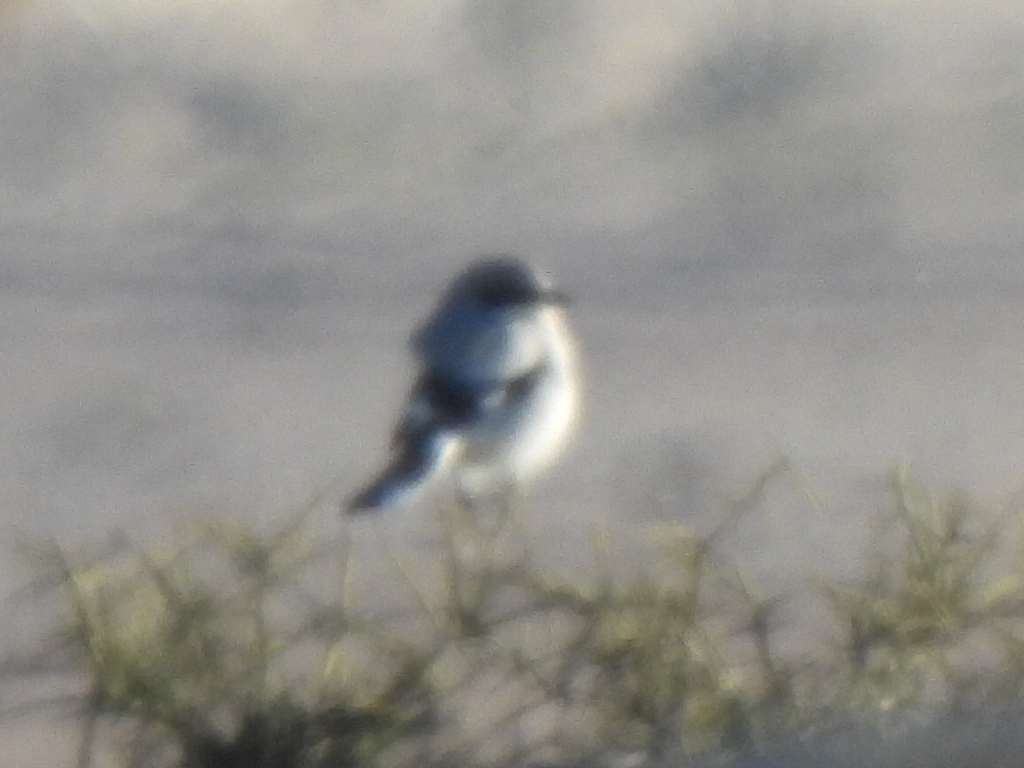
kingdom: Animalia
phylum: Chordata
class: Aves
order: Passeriformes
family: Laniidae
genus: Lanius
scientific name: Lanius ludovicianus
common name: Loggerhead shrike
